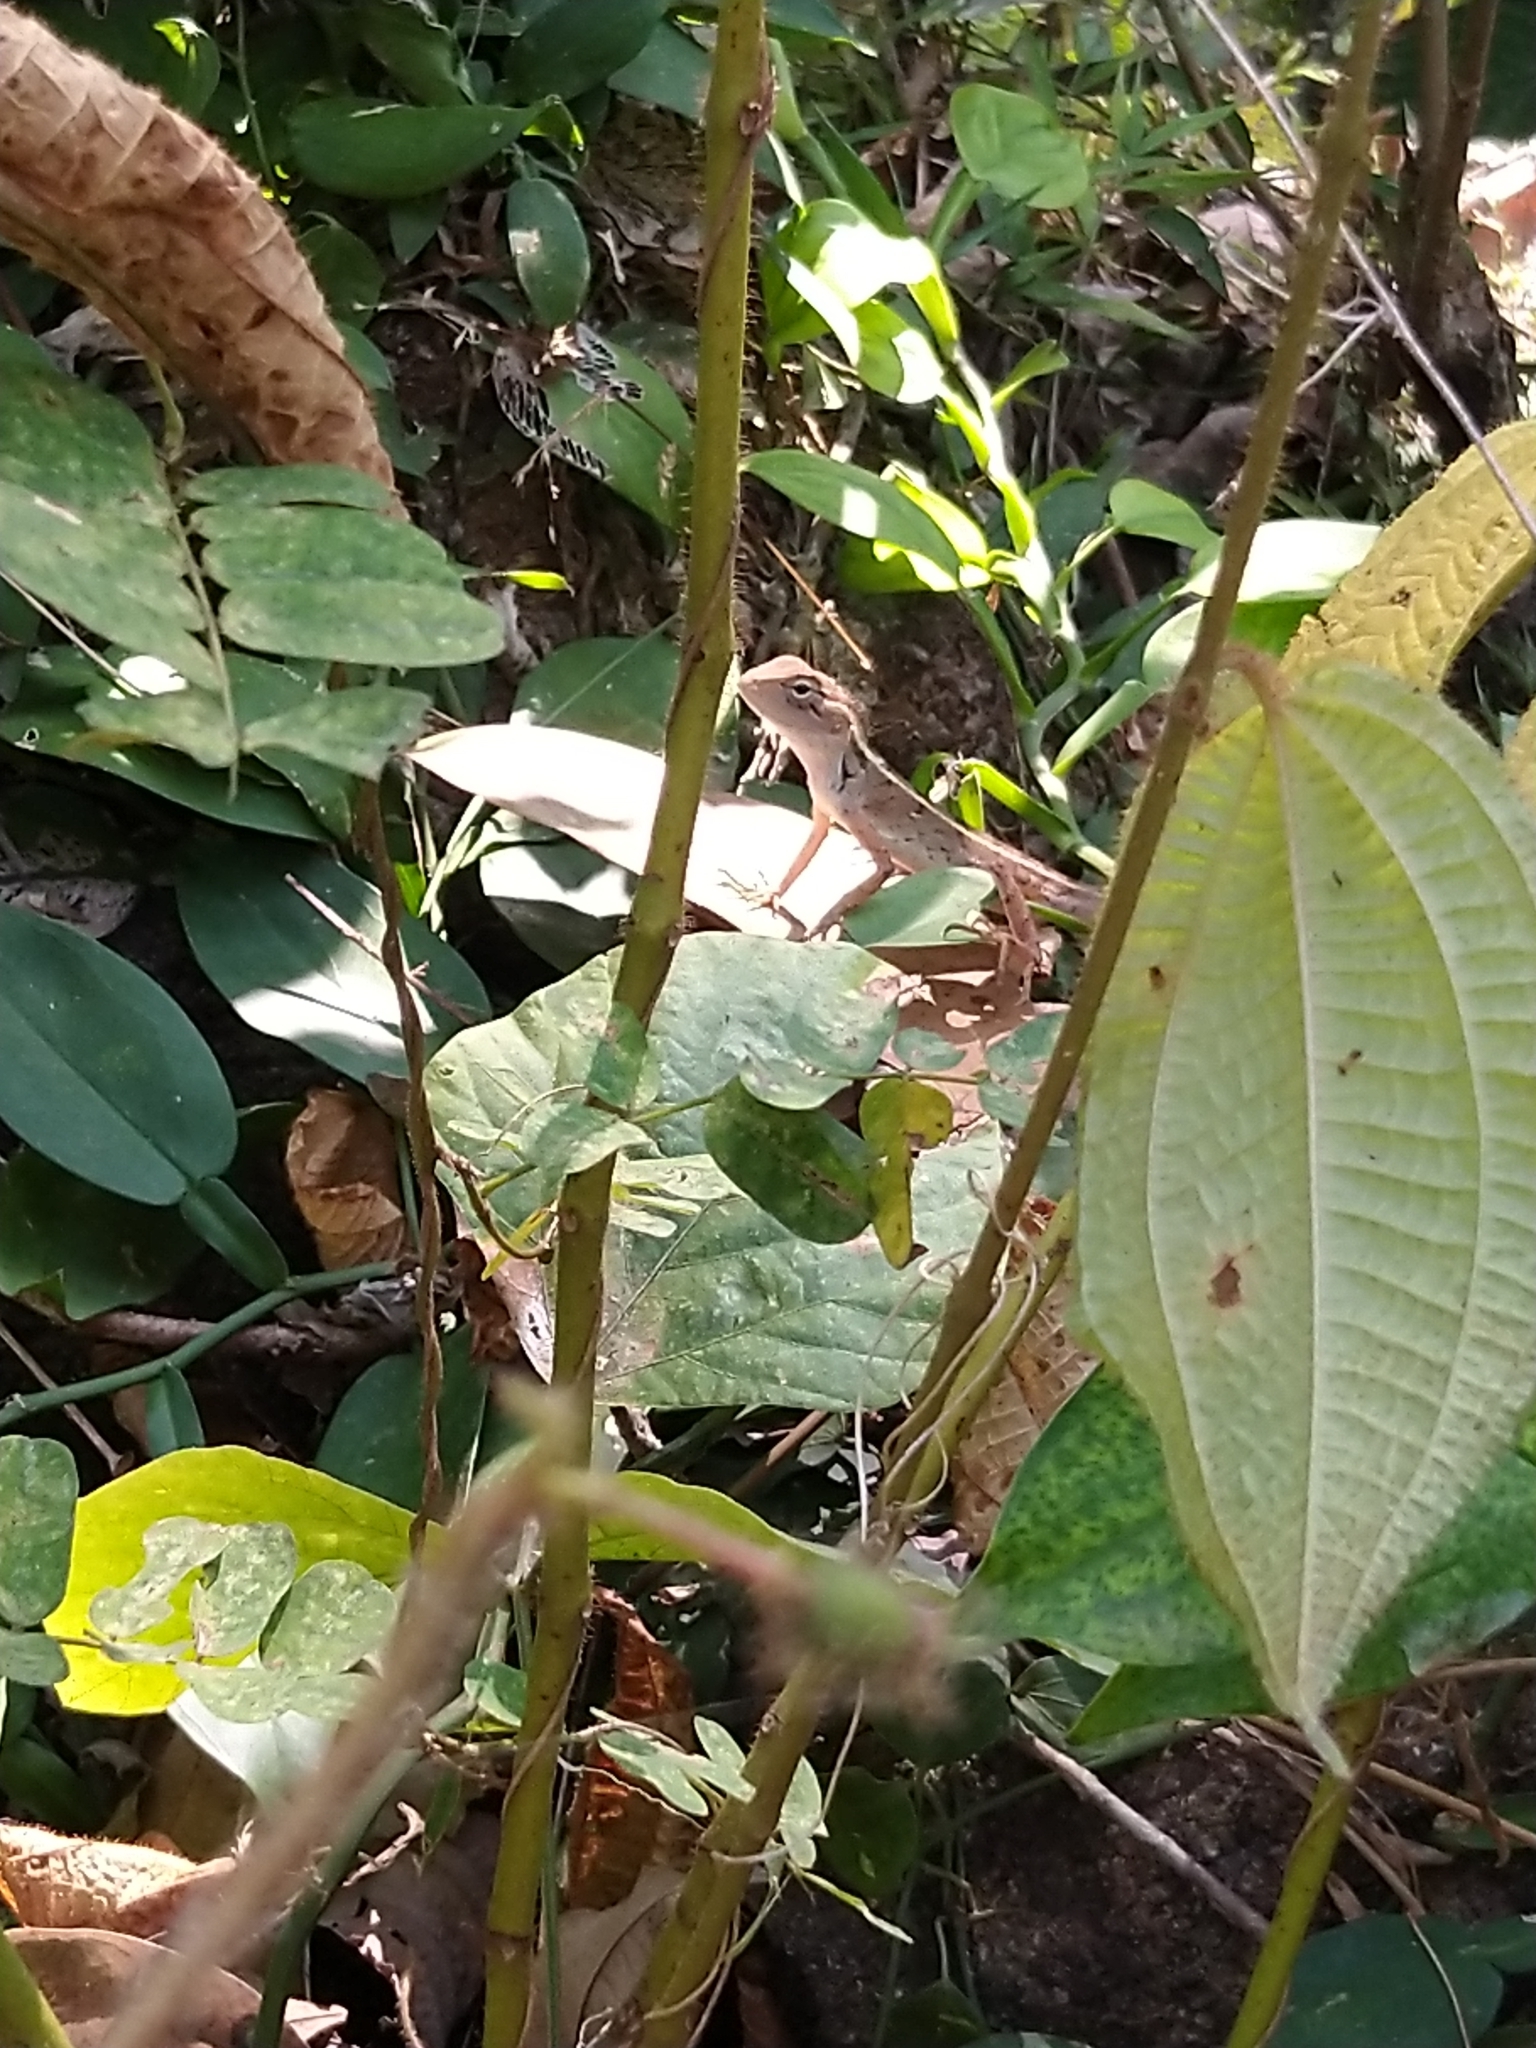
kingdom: Animalia
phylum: Chordata
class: Squamata
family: Agamidae
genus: Calotes
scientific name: Calotes versicolor
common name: Oriental garden lizard
